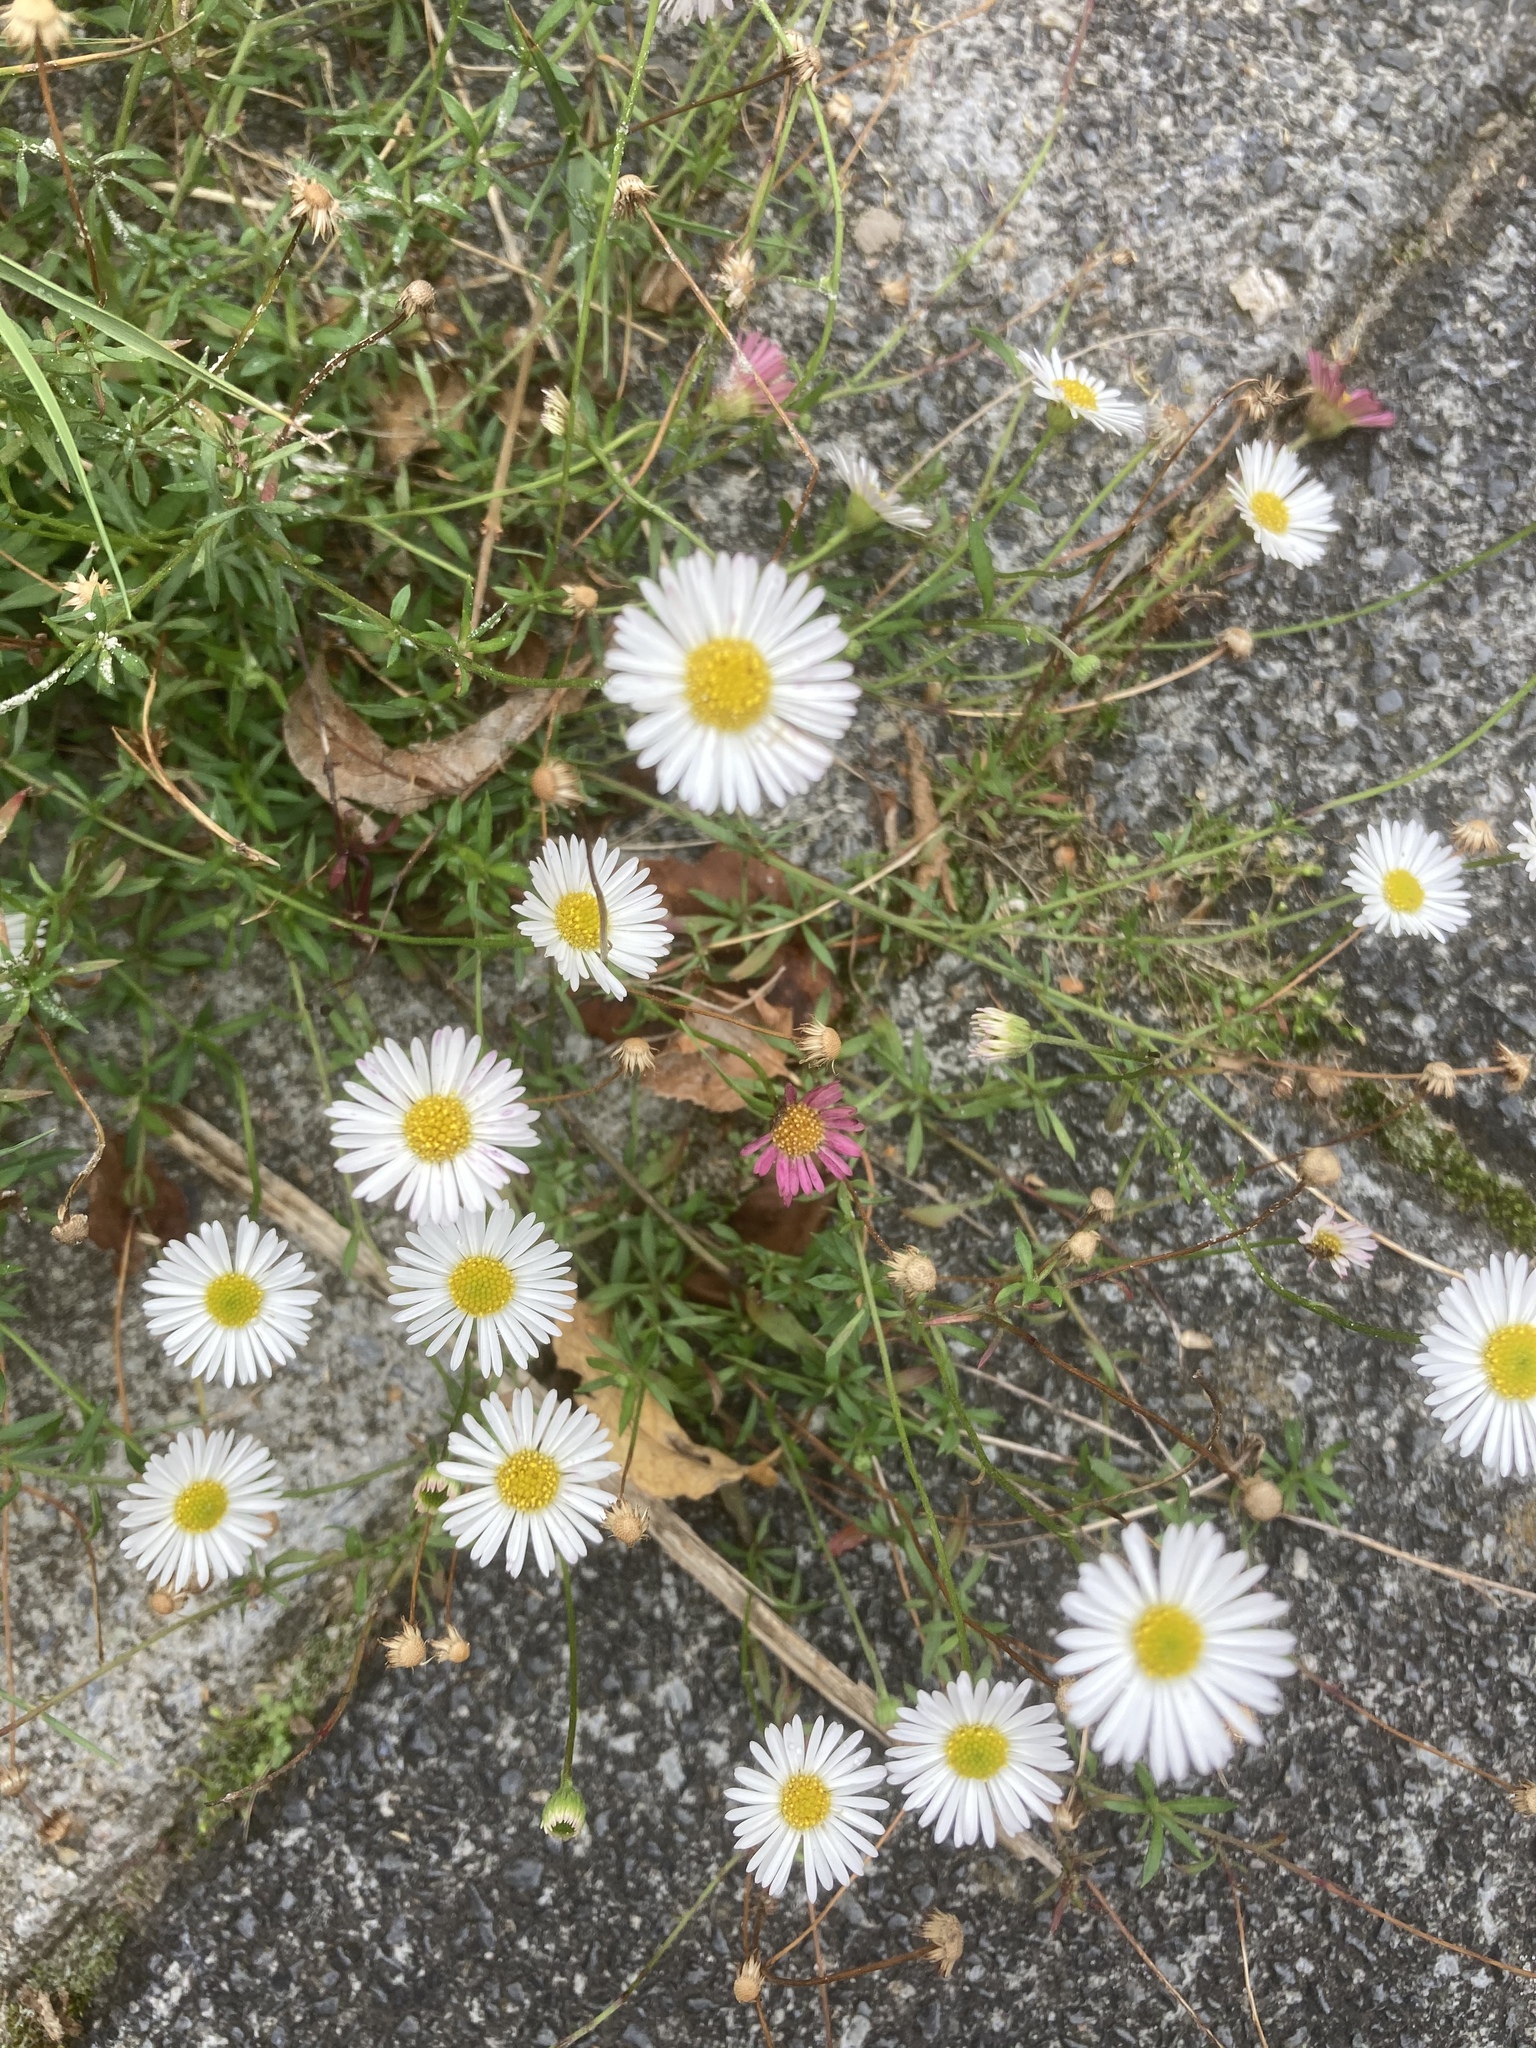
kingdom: Plantae
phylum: Tracheophyta
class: Magnoliopsida
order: Asterales
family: Asteraceae
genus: Erigeron
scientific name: Erigeron karvinskianus
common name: Mexican fleabane
